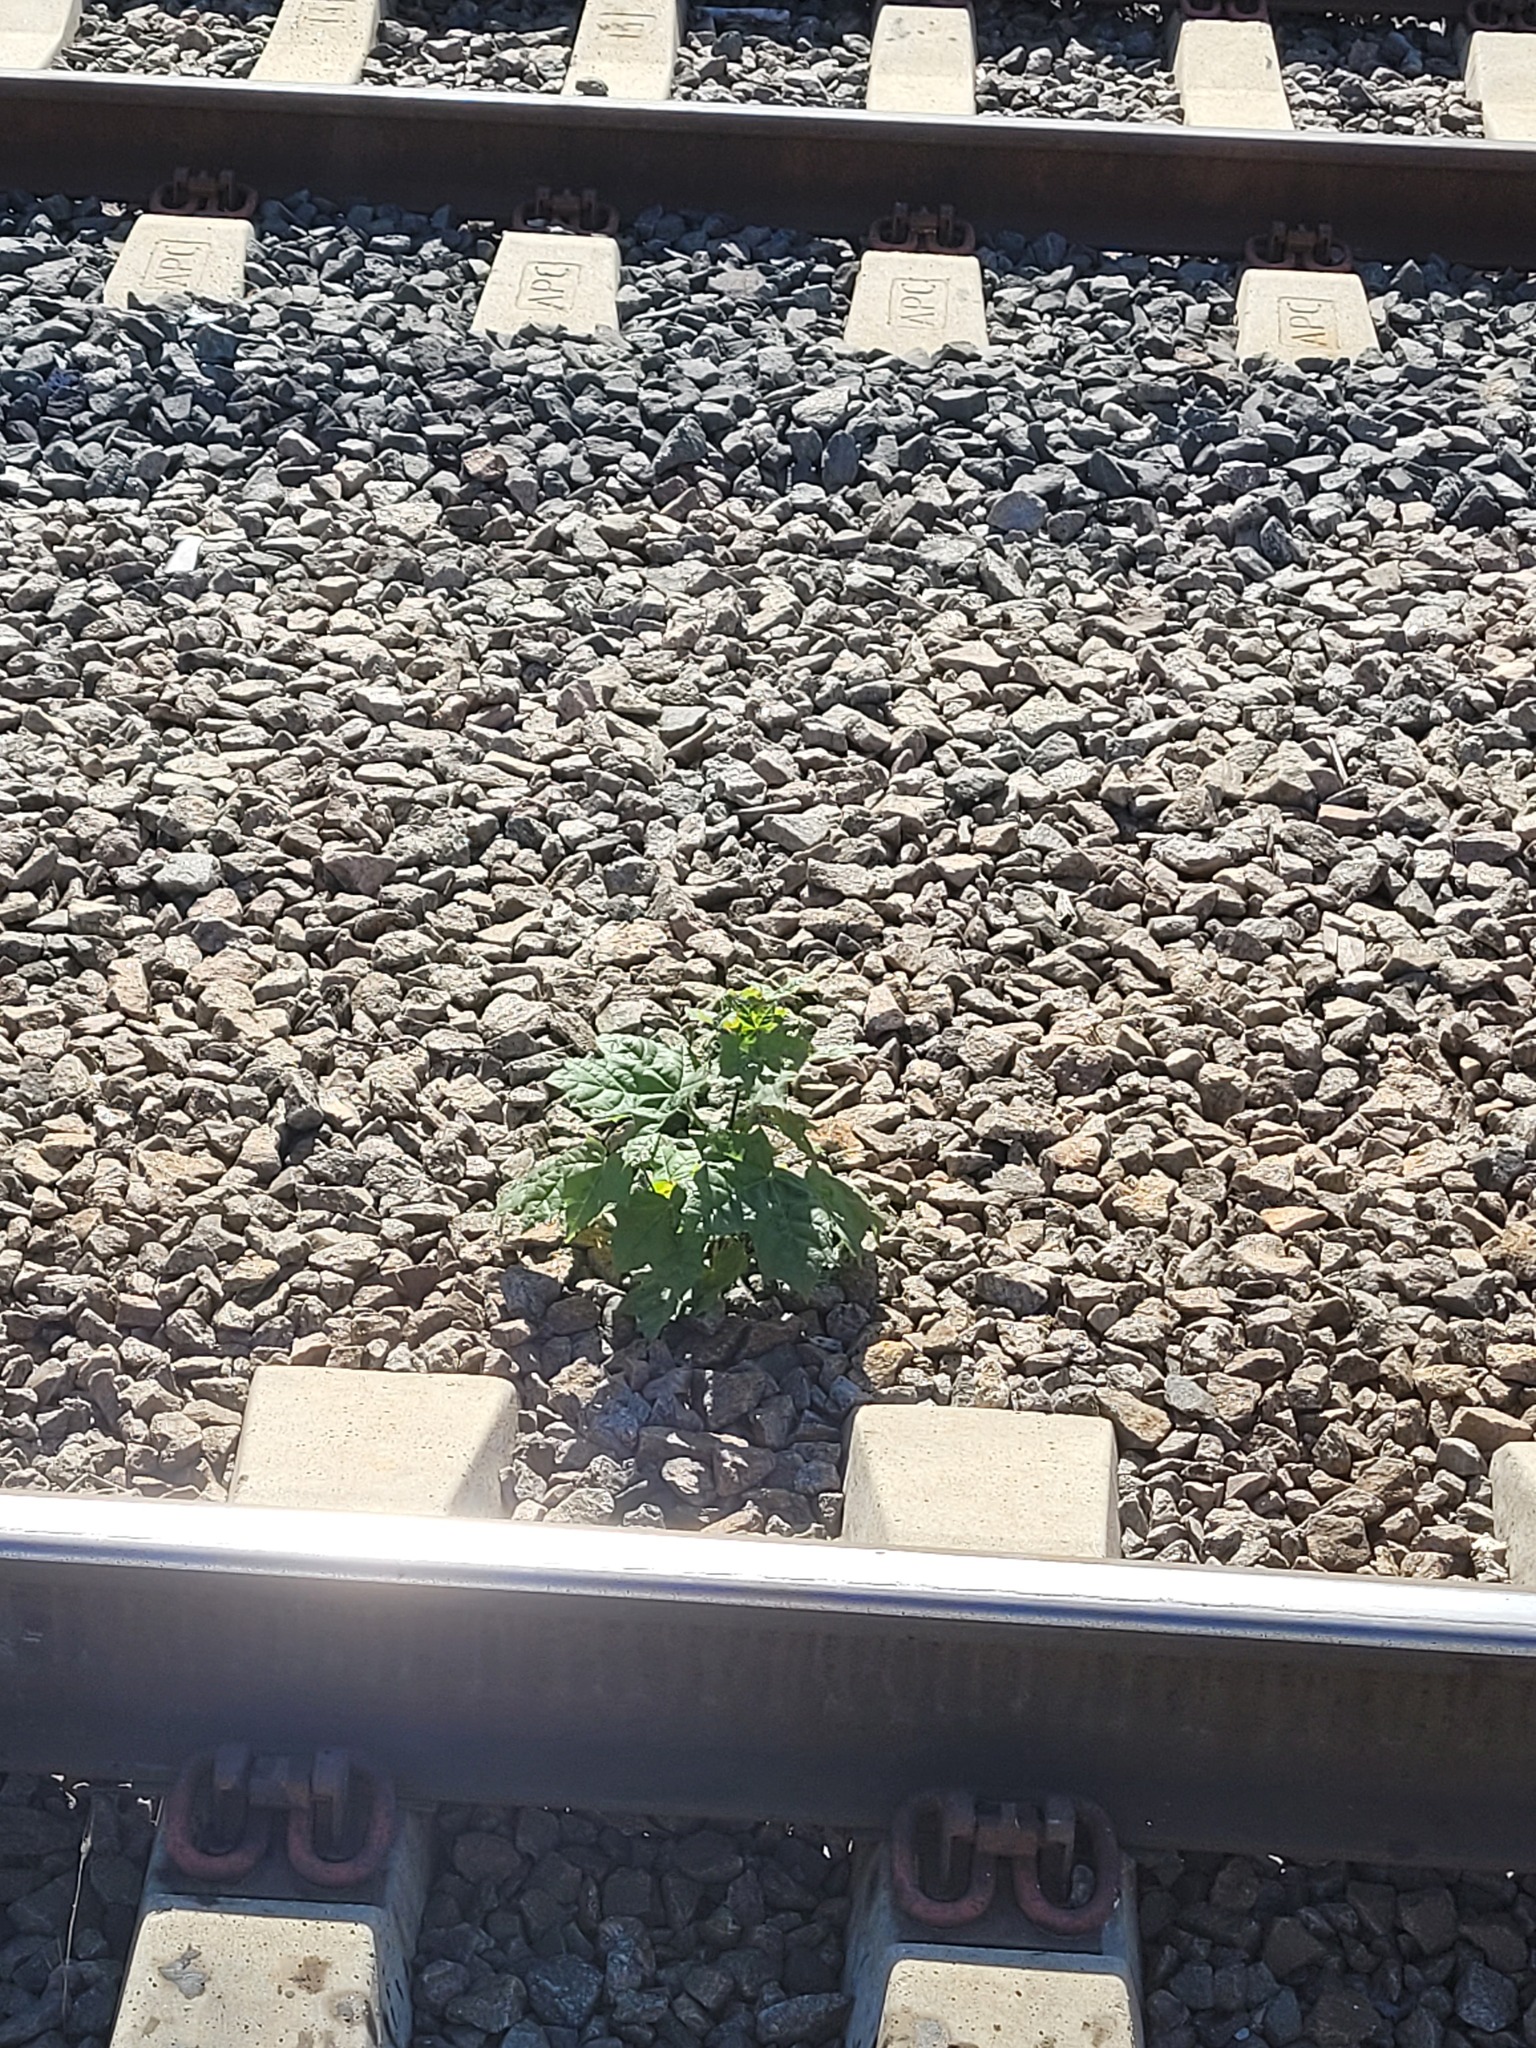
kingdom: Plantae
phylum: Tracheophyta
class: Magnoliopsida
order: Sapindales
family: Sapindaceae
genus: Acer
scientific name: Acer platanoides
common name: Norway maple
